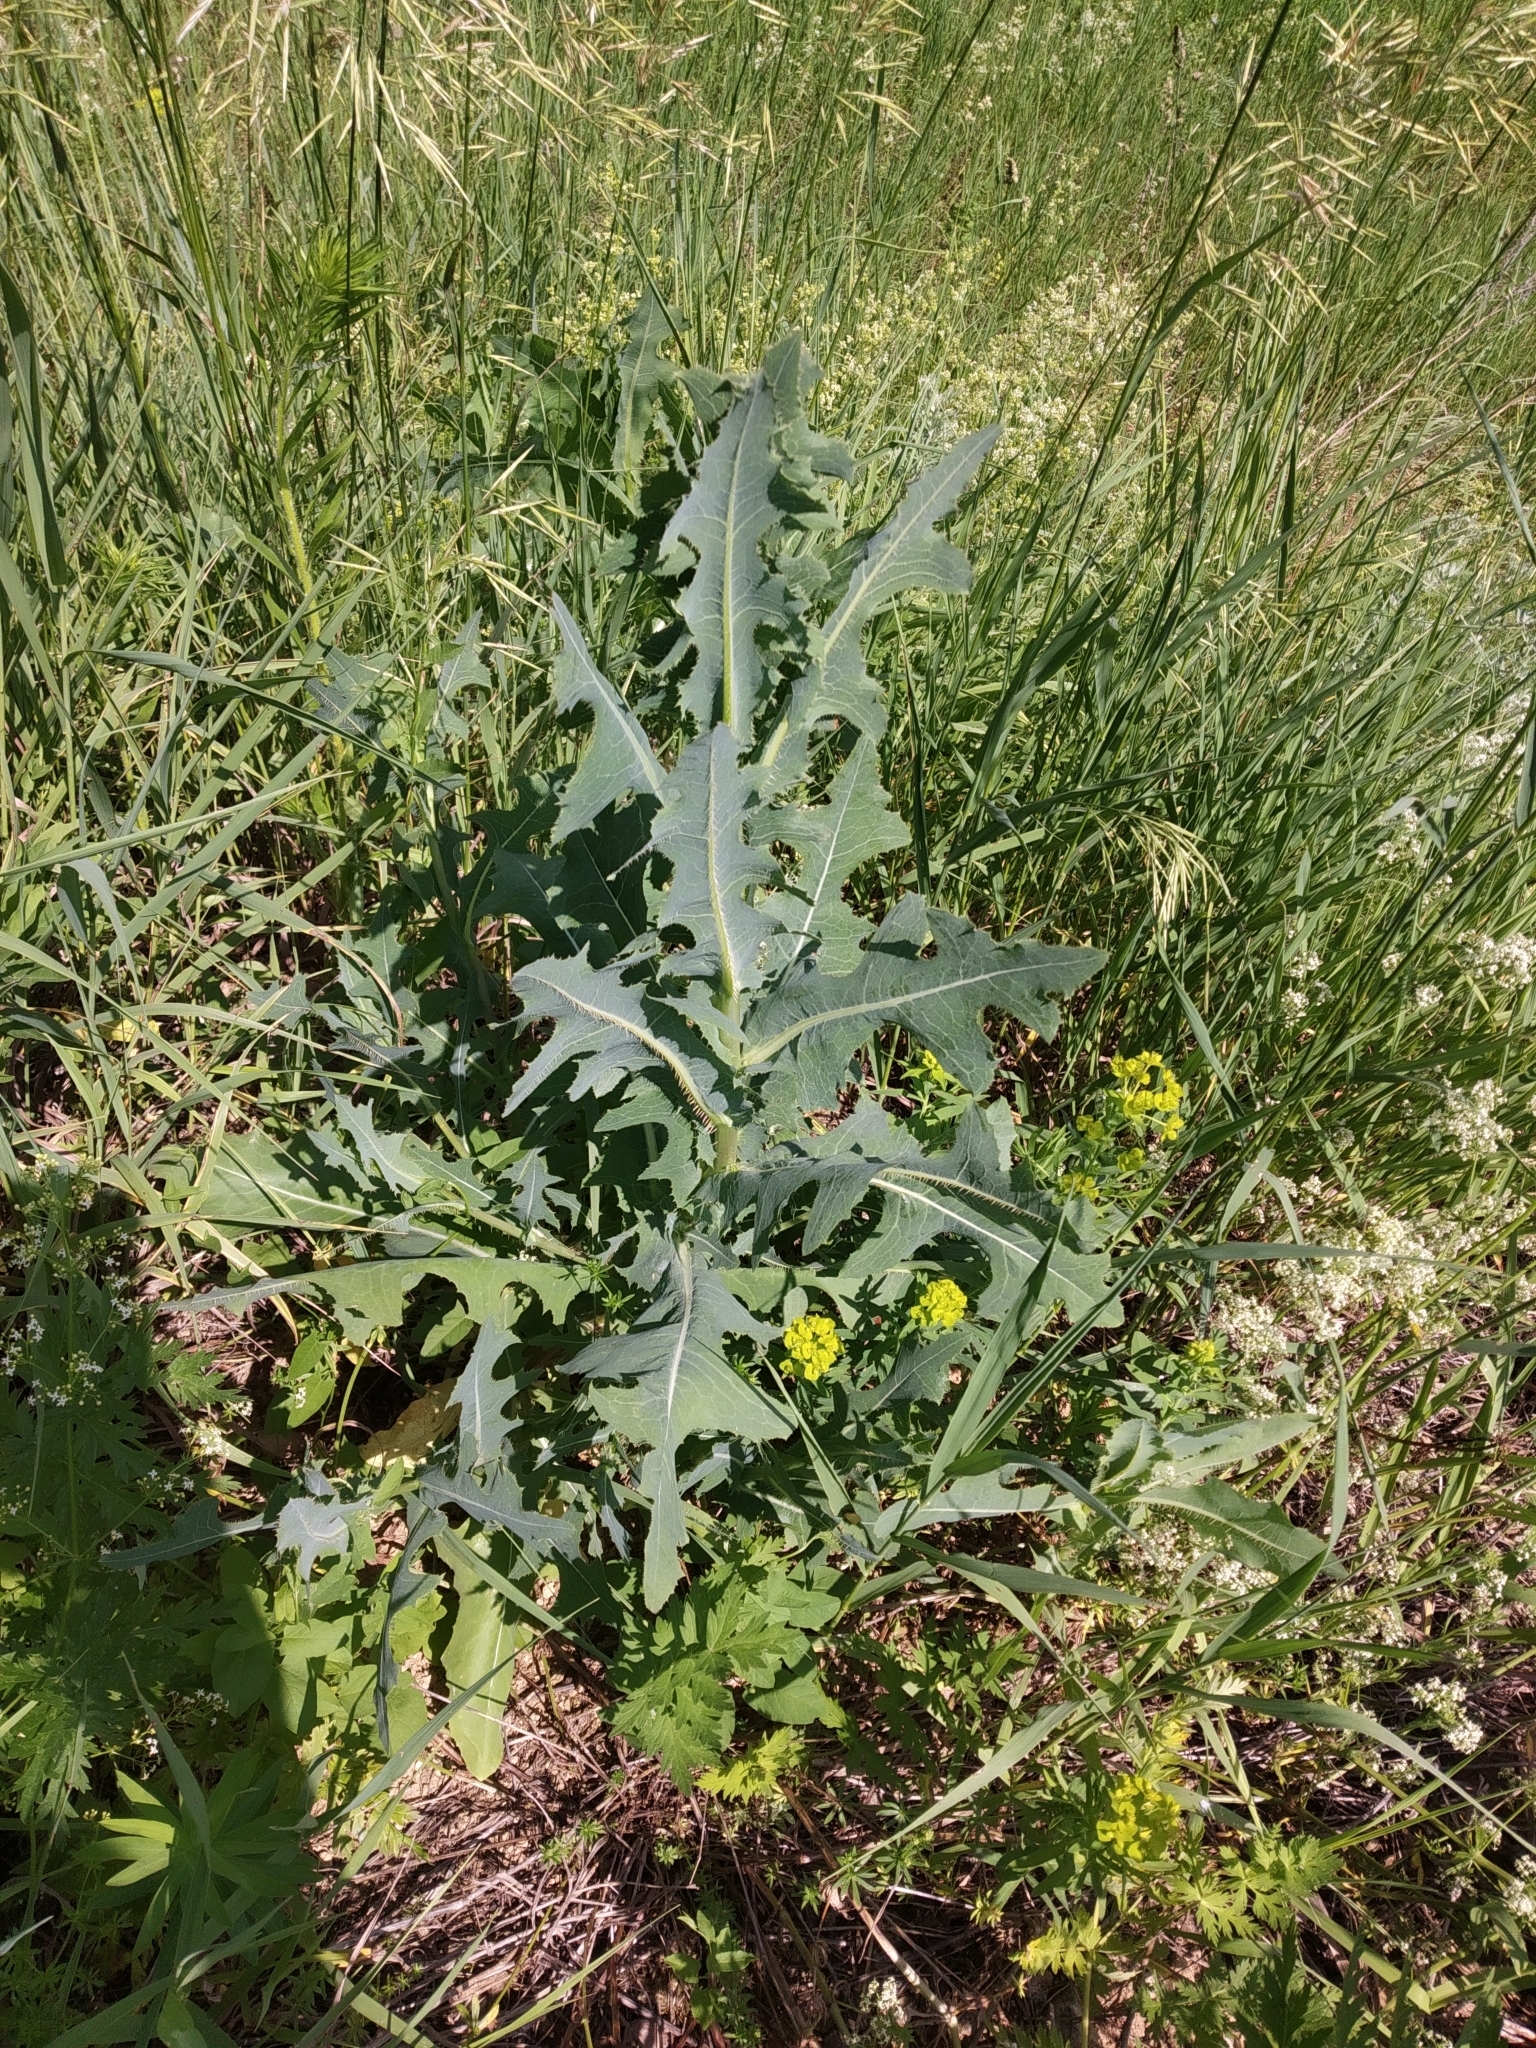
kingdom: Plantae
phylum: Tracheophyta
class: Magnoliopsida
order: Asterales
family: Asteraceae
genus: Lactuca
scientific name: Lactuca serriola
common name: Prickly lettuce
